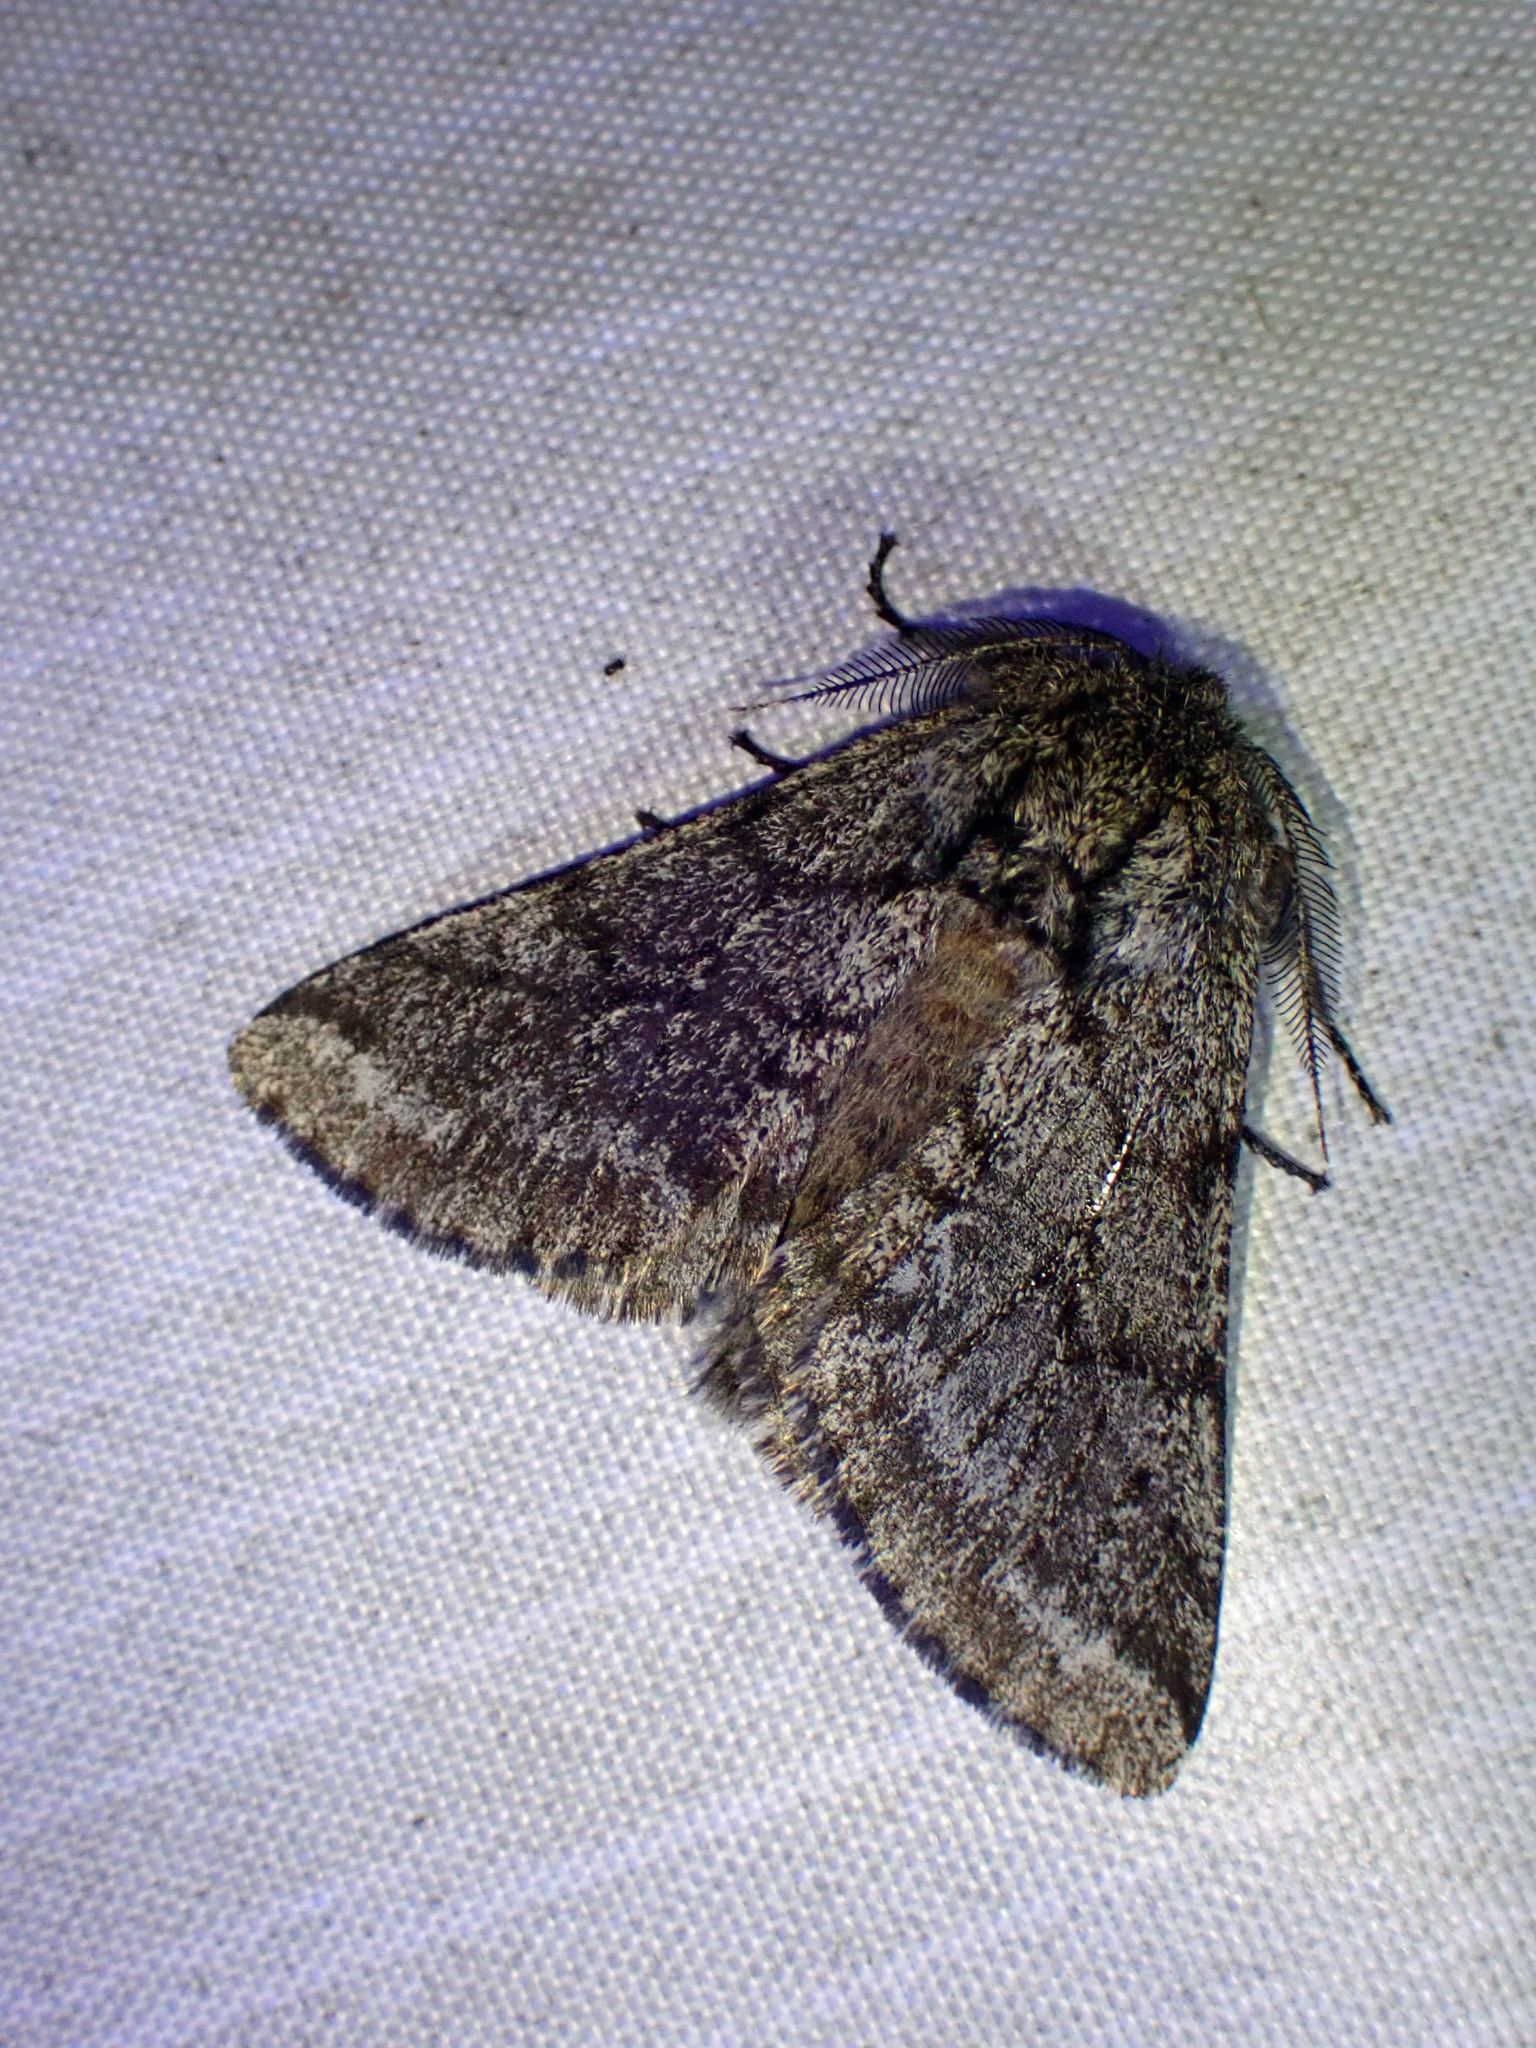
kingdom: Animalia
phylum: Arthropoda
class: Insecta
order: Lepidoptera
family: Geometridae
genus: Lycia
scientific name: Lycia ursaria
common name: Stout spanworm
